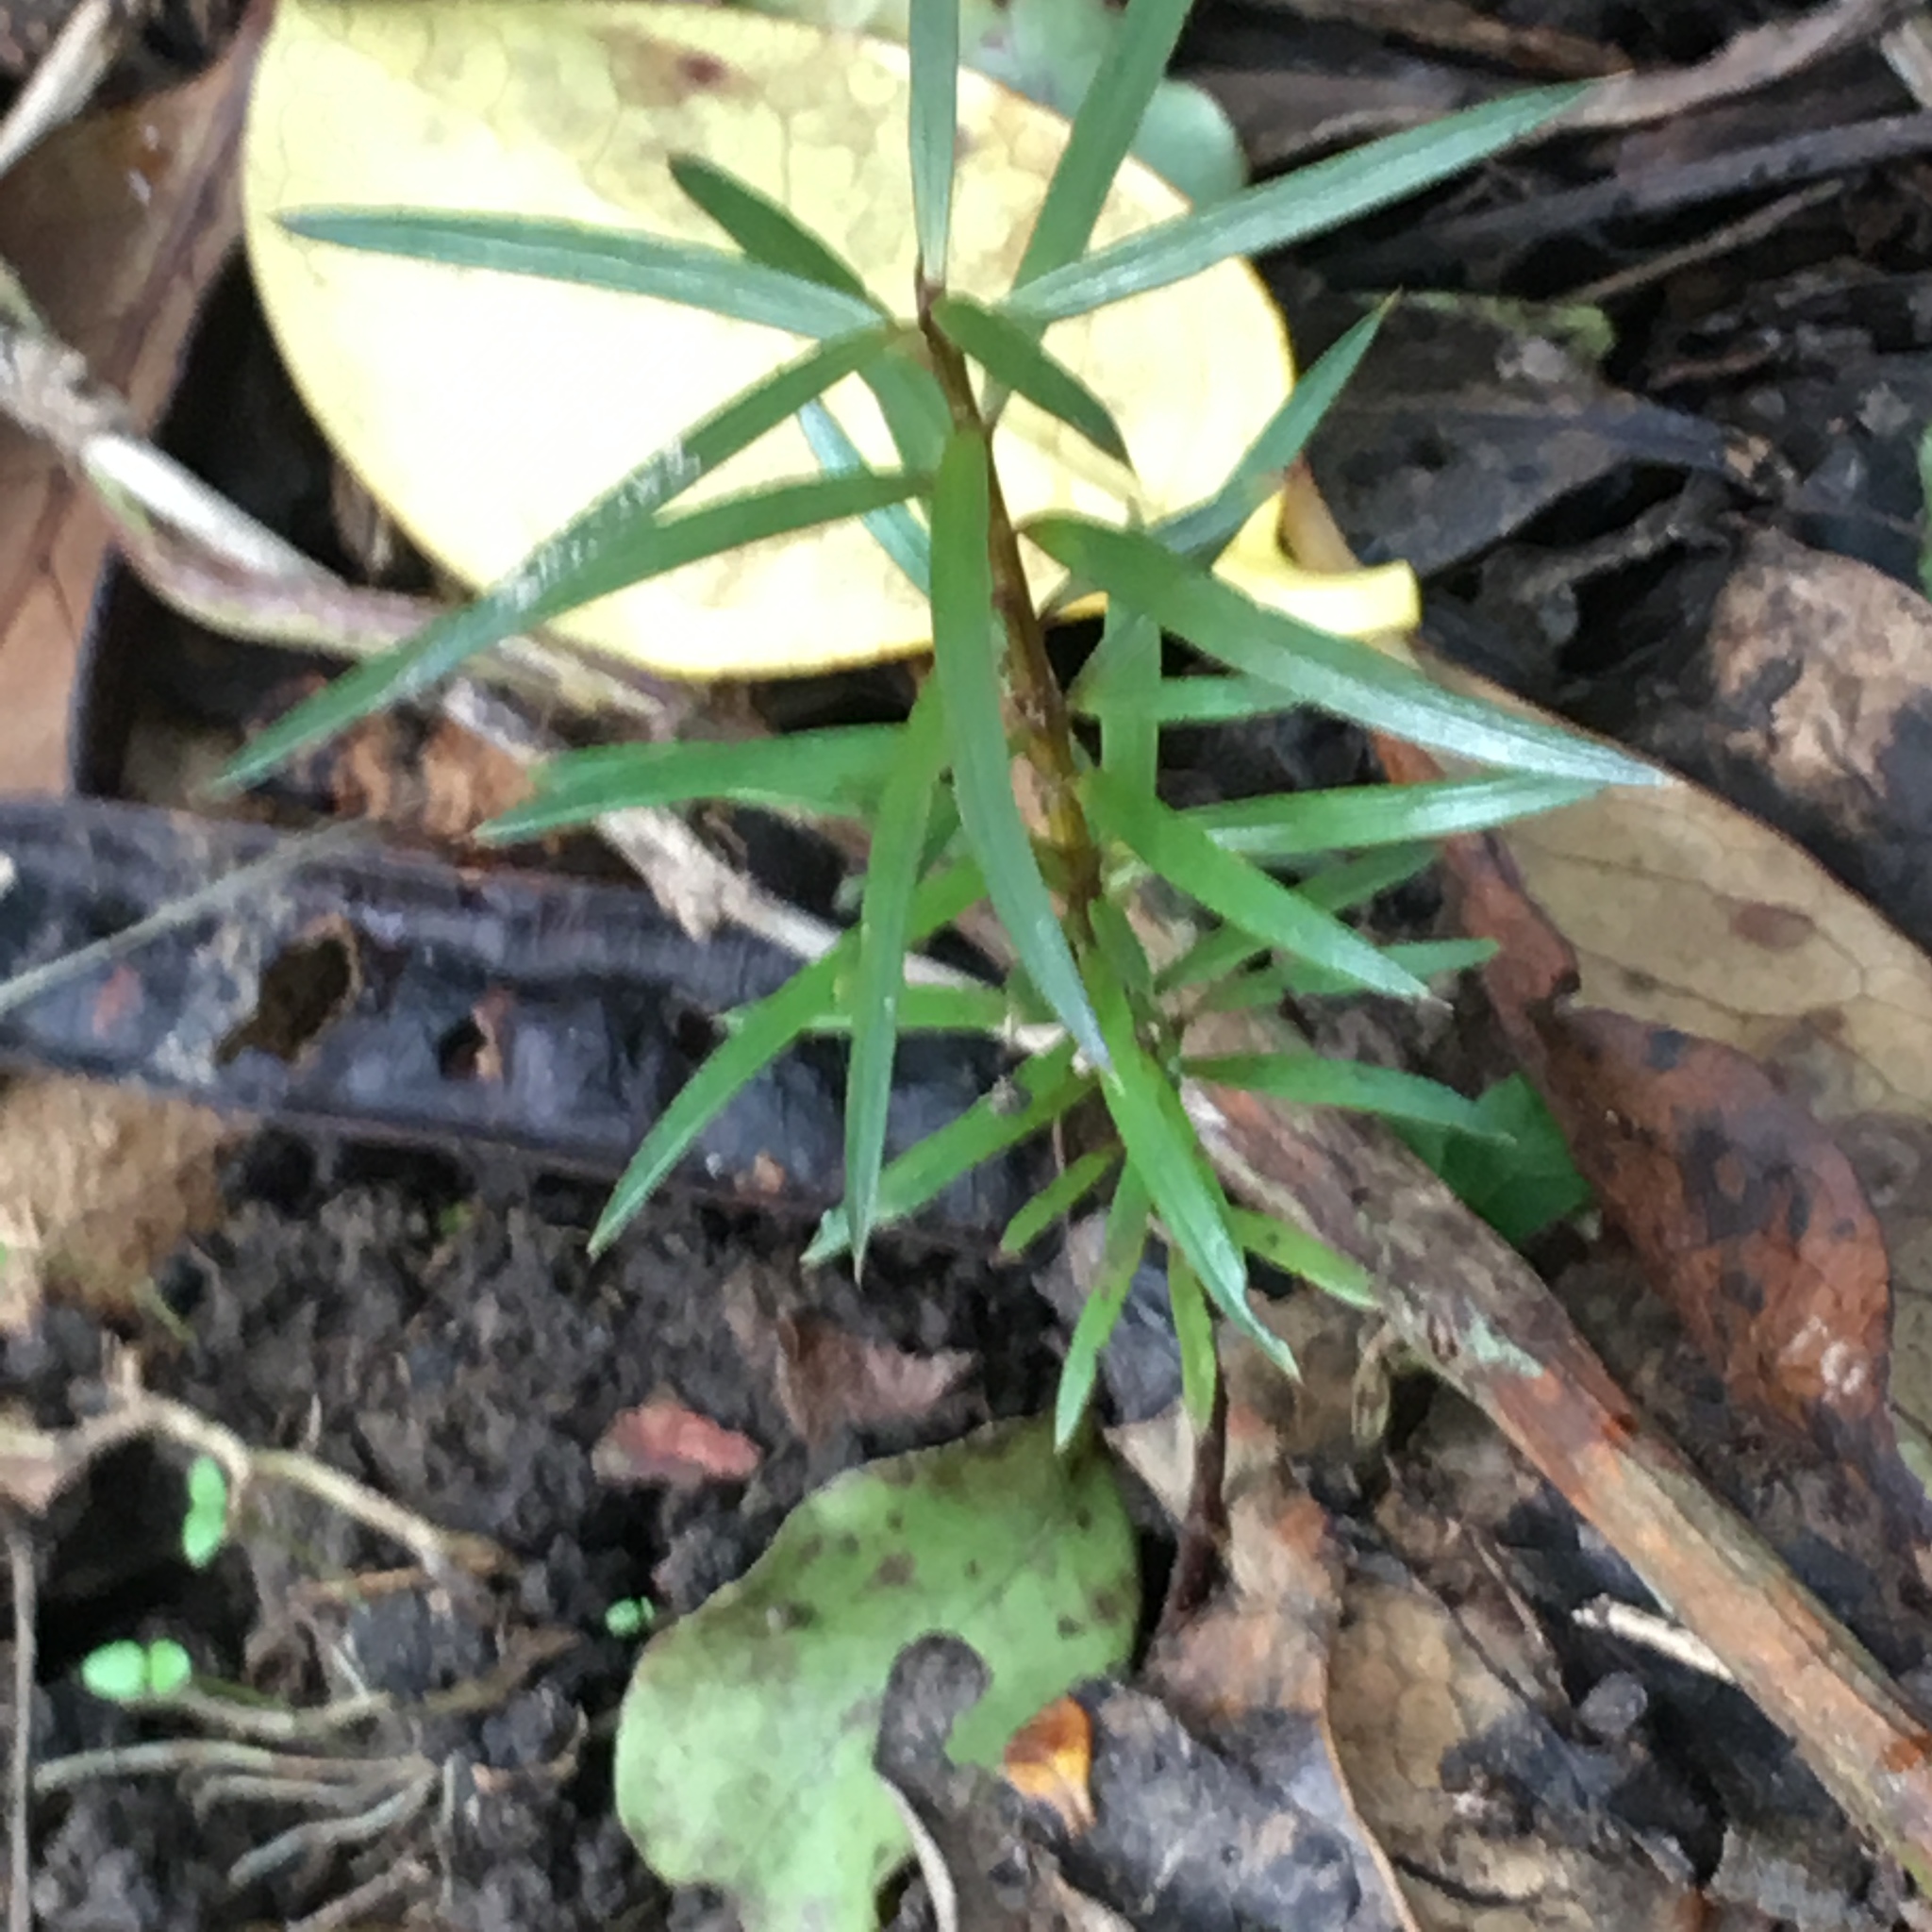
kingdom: Plantae
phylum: Tracheophyta
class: Pinopsida
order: Pinales
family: Podocarpaceae
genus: Podocarpus
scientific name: Podocarpus totara
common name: Totara
